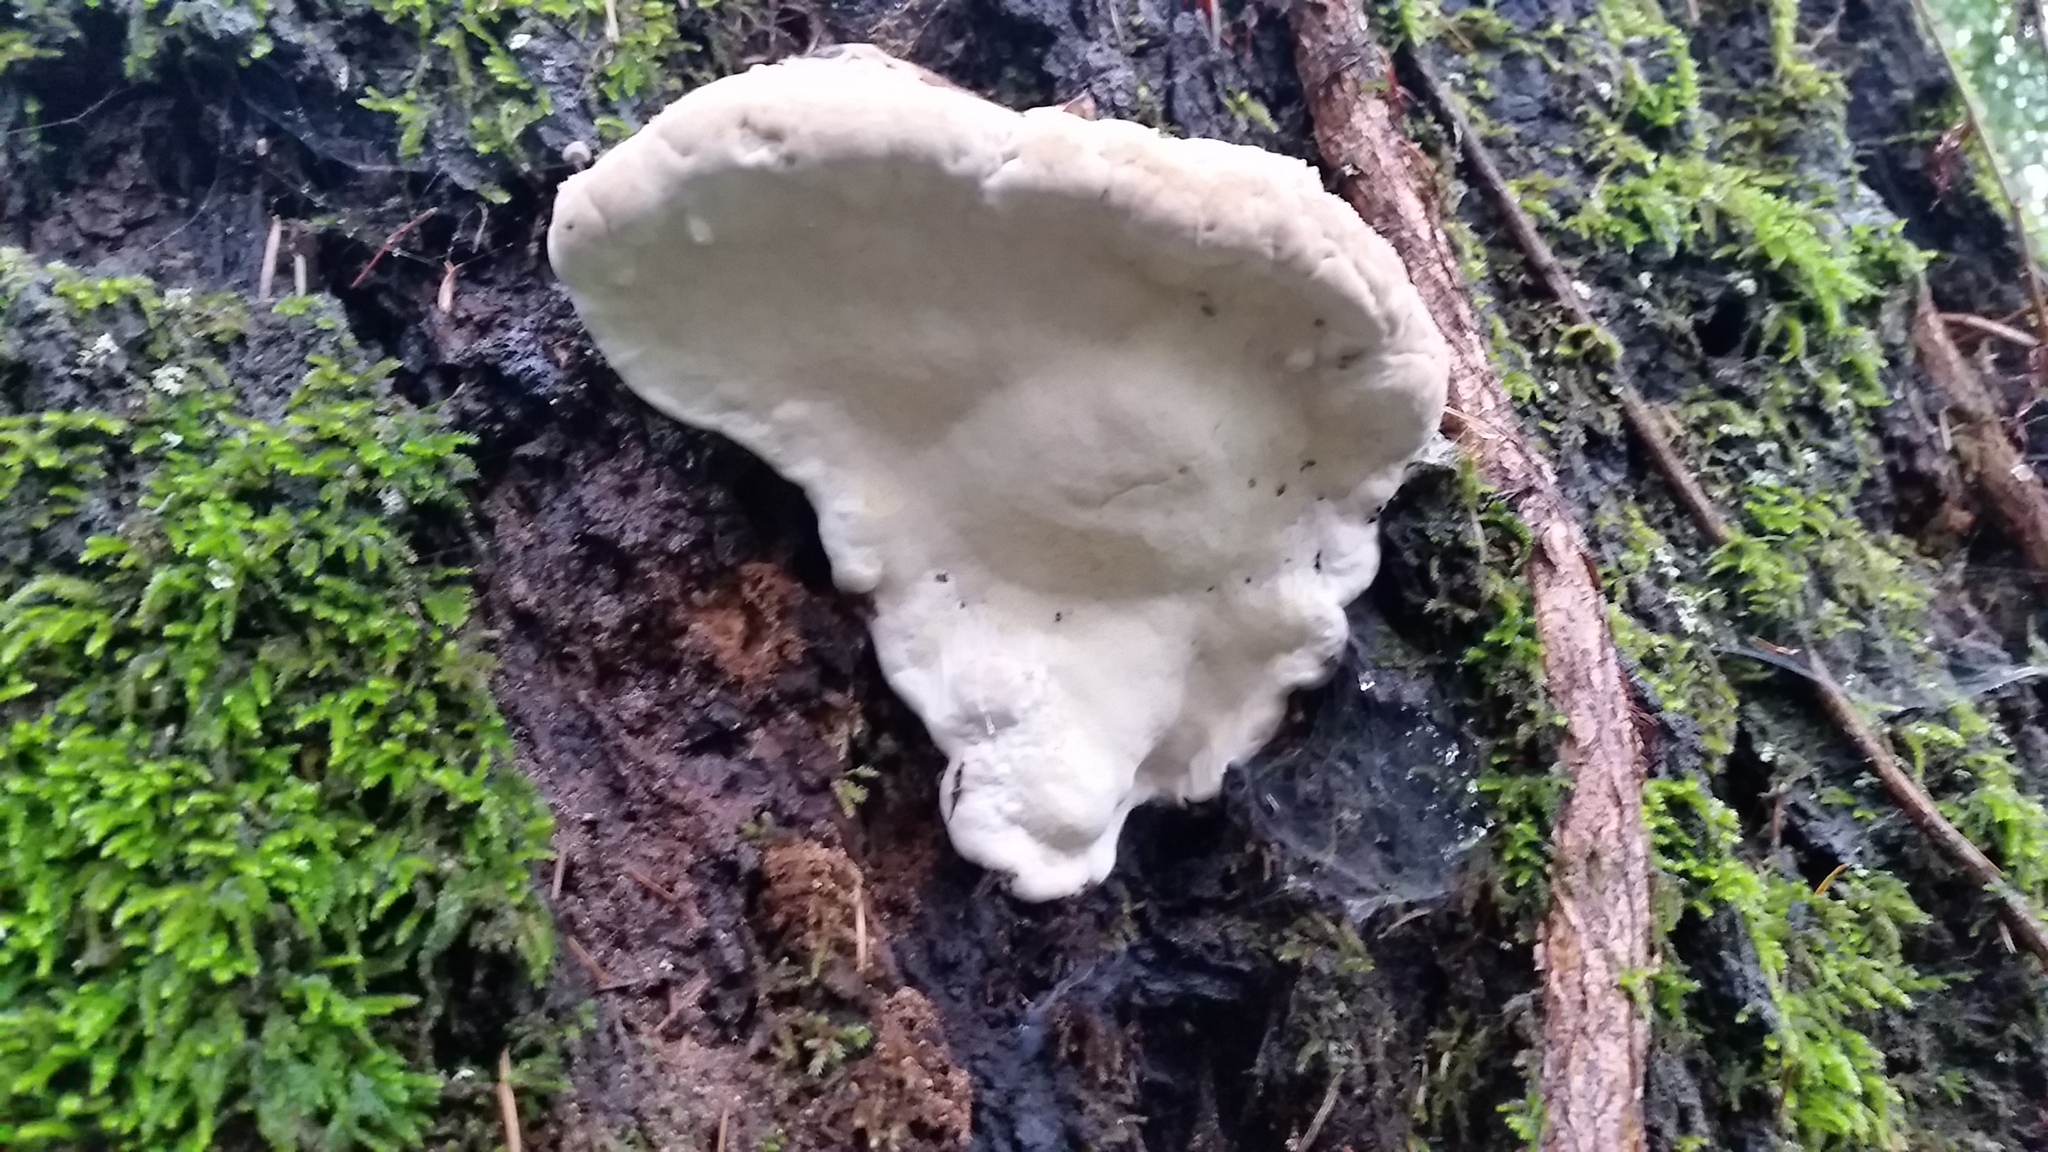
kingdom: Fungi
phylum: Basidiomycota
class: Agaricomycetes
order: Polyporales
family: Fomitopsidaceae
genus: Fomitopsis
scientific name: Fomitopsis pinicola
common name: Red-belted bracket
